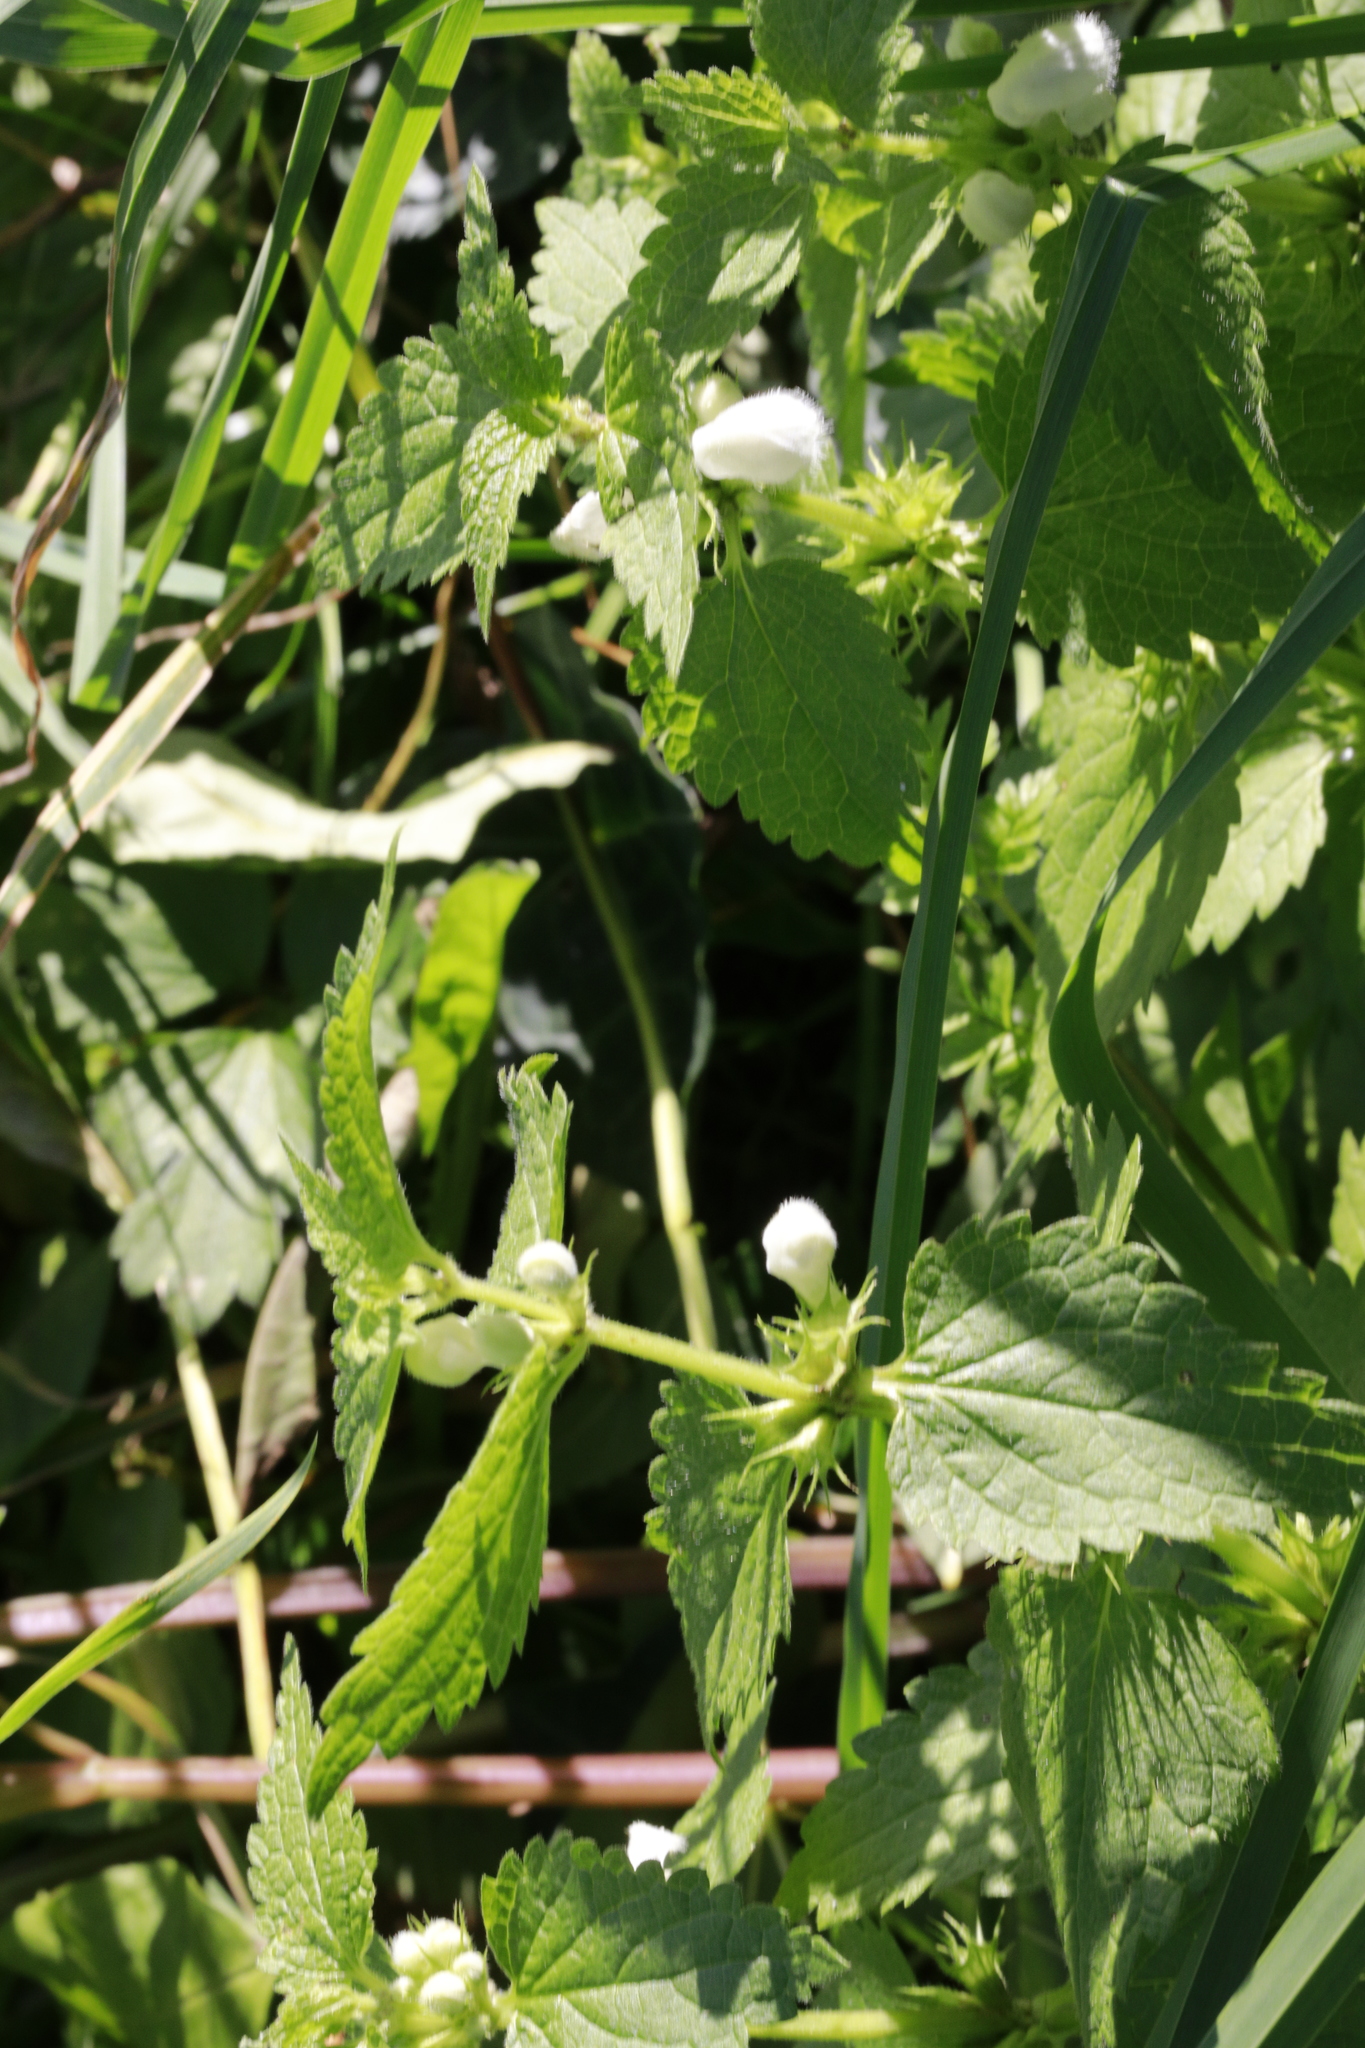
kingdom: Plantae
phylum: Tracheophyta
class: Magnoliopsida
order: Lamiales
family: Lamiaceae
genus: Lamium
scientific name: Lamium album
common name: White dead-nettle
